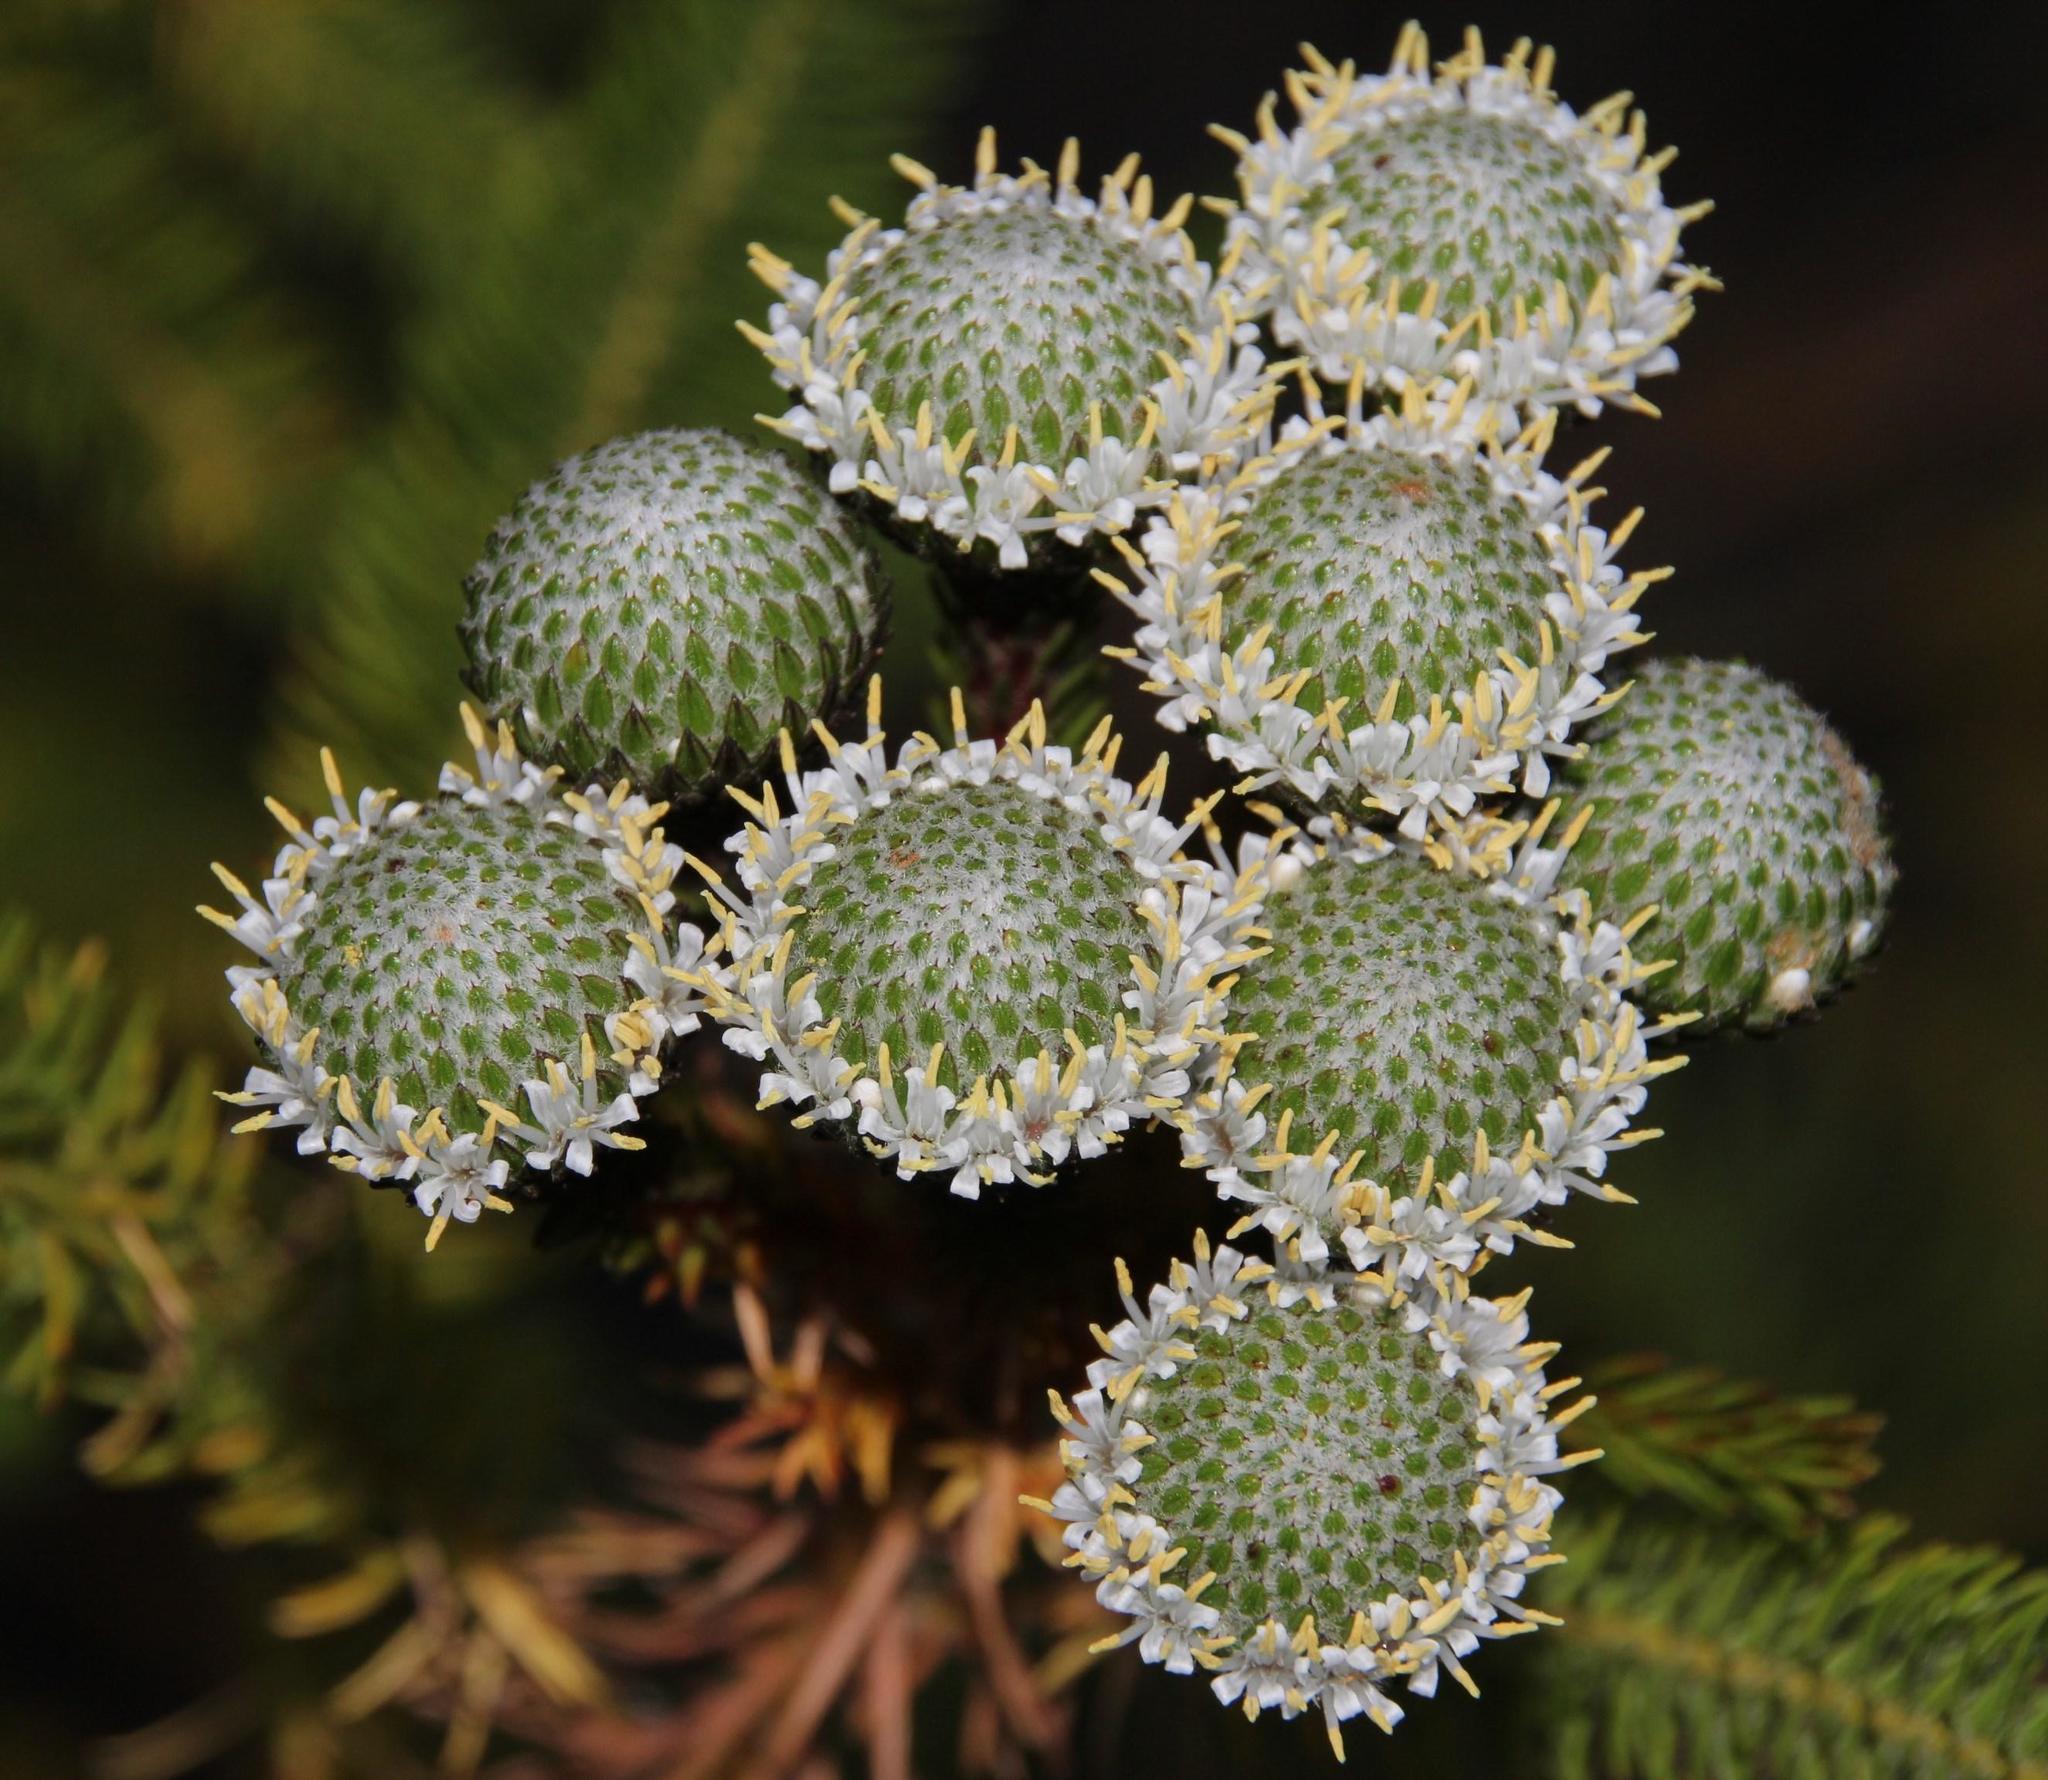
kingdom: Plantae
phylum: Tracheophyta
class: Magnoliopsida
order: Bruniales
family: Bruniaceae
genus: Berzelia
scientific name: Berzelia albiflora
